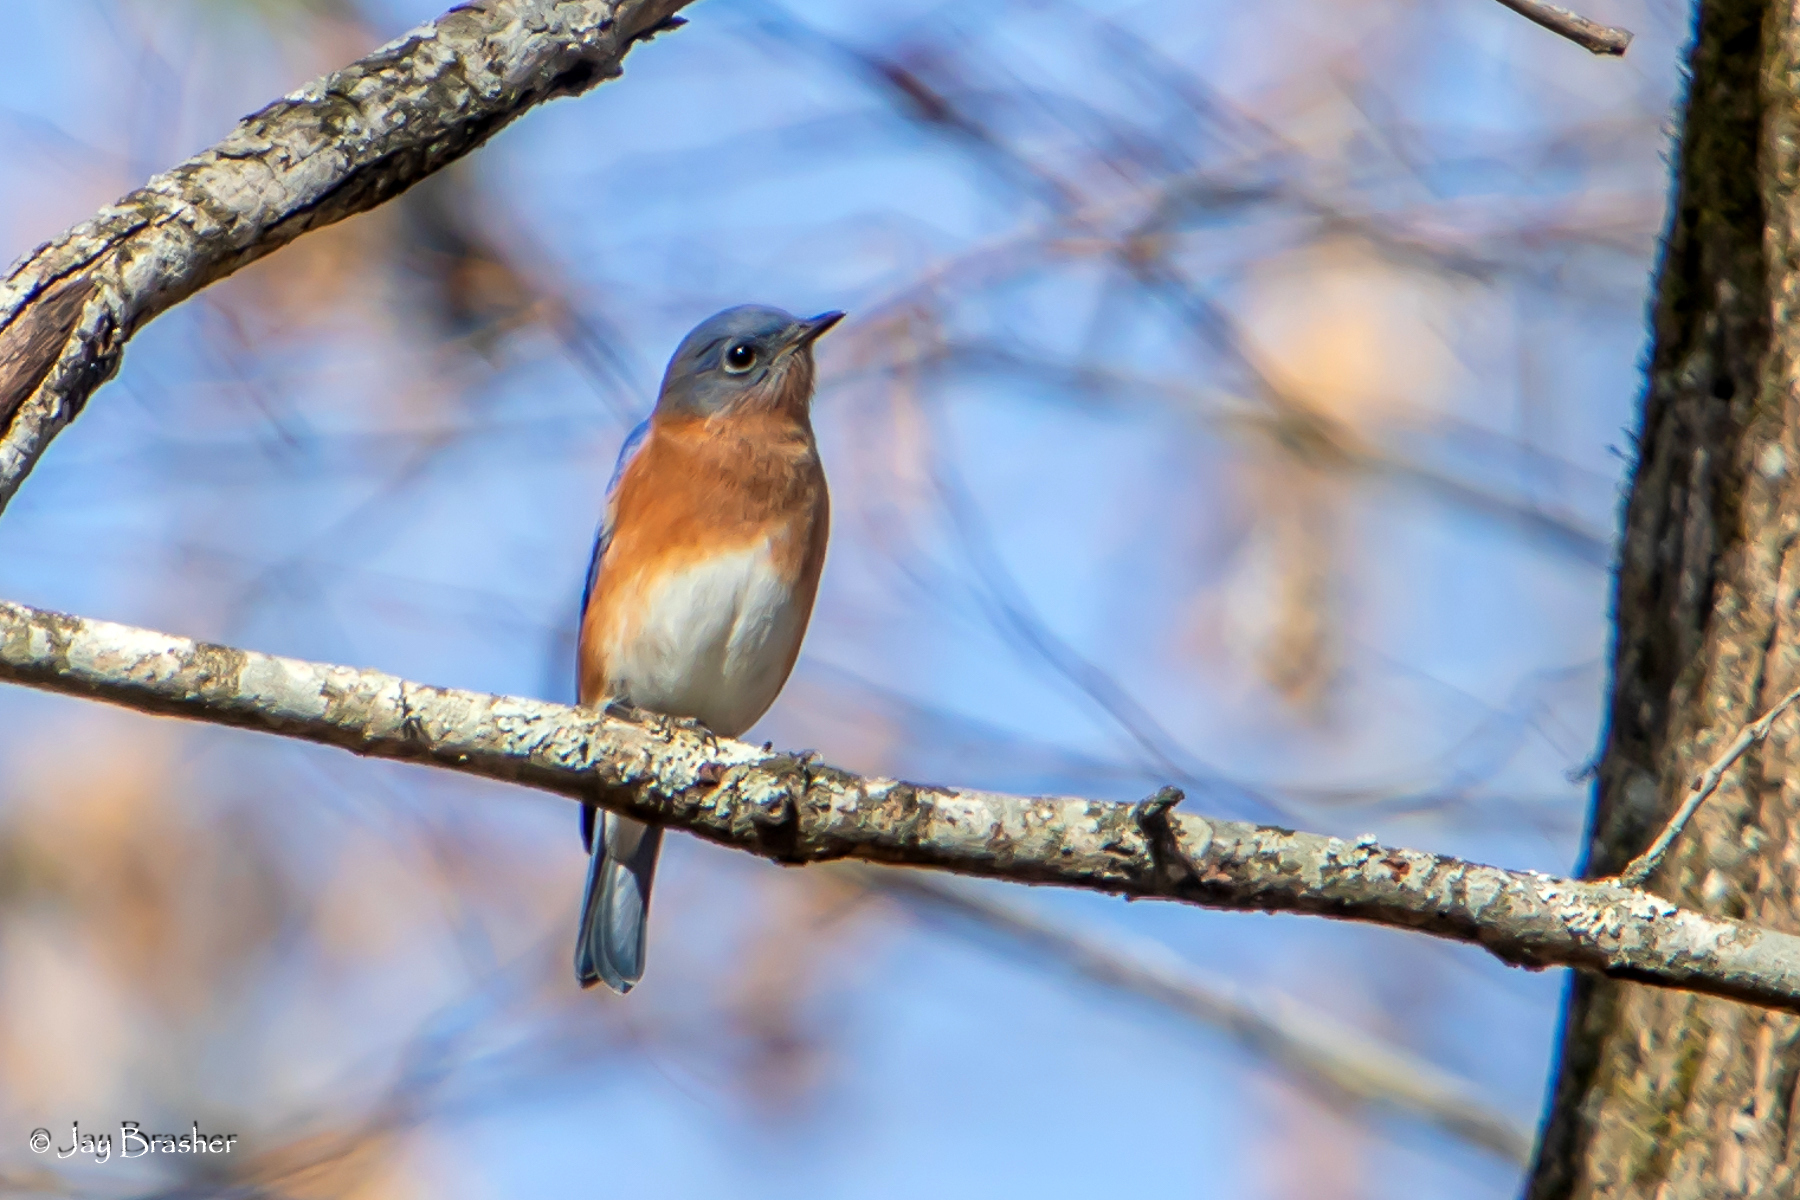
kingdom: Animalia
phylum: Chordata
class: Aves
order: Passeriformes
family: Turdidae
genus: Sialia
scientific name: Sialia sialis
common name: Eastern bluebird
